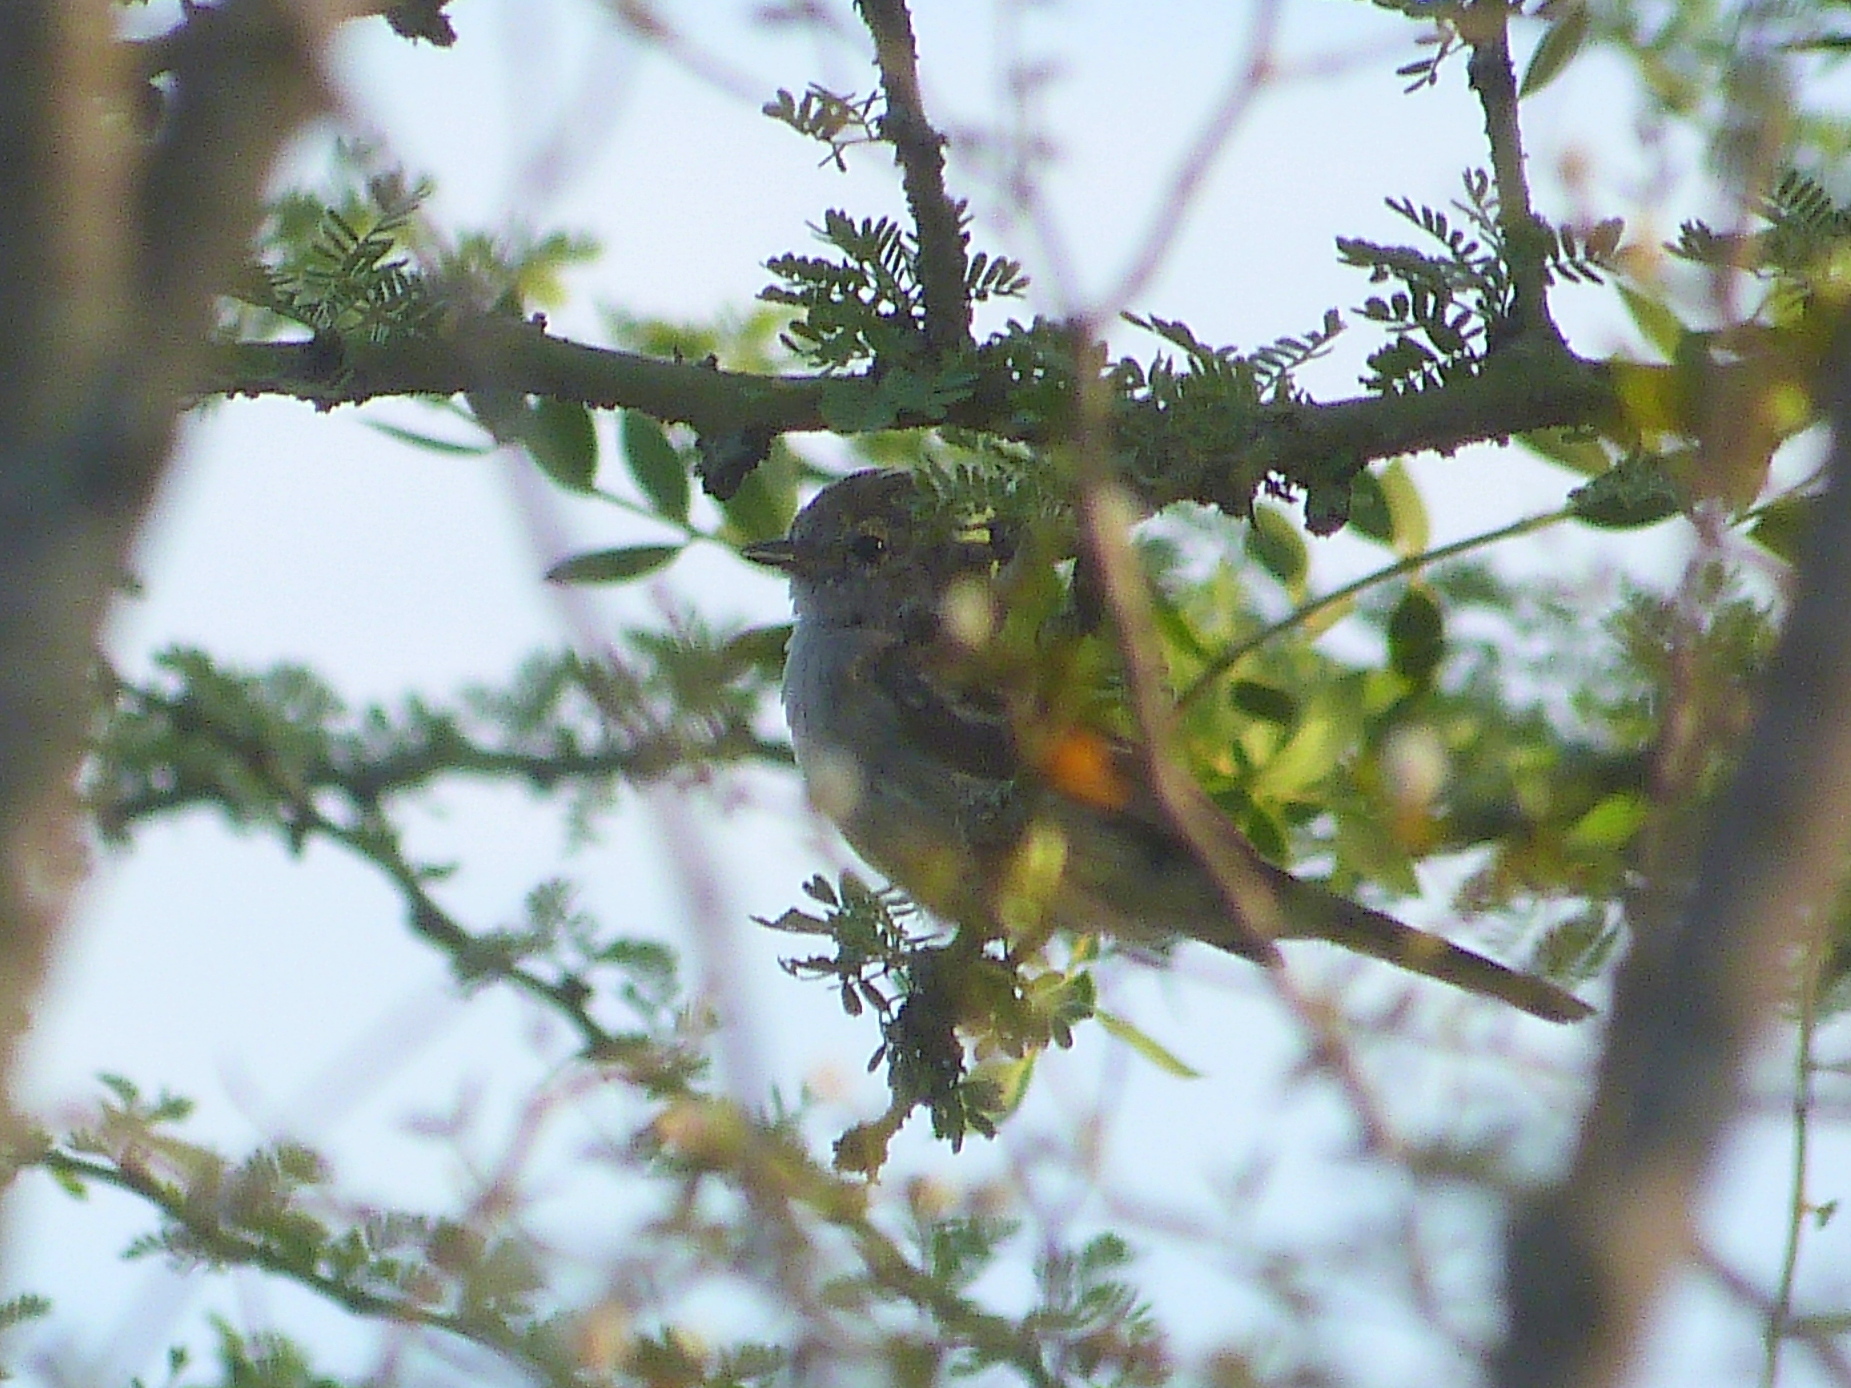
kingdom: Animalia
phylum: Chordata
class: Aves
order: Passeriformes
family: Tyrannidae
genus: Sublegatus
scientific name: Sublegatus modestus
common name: Southern scrub flycatcher
